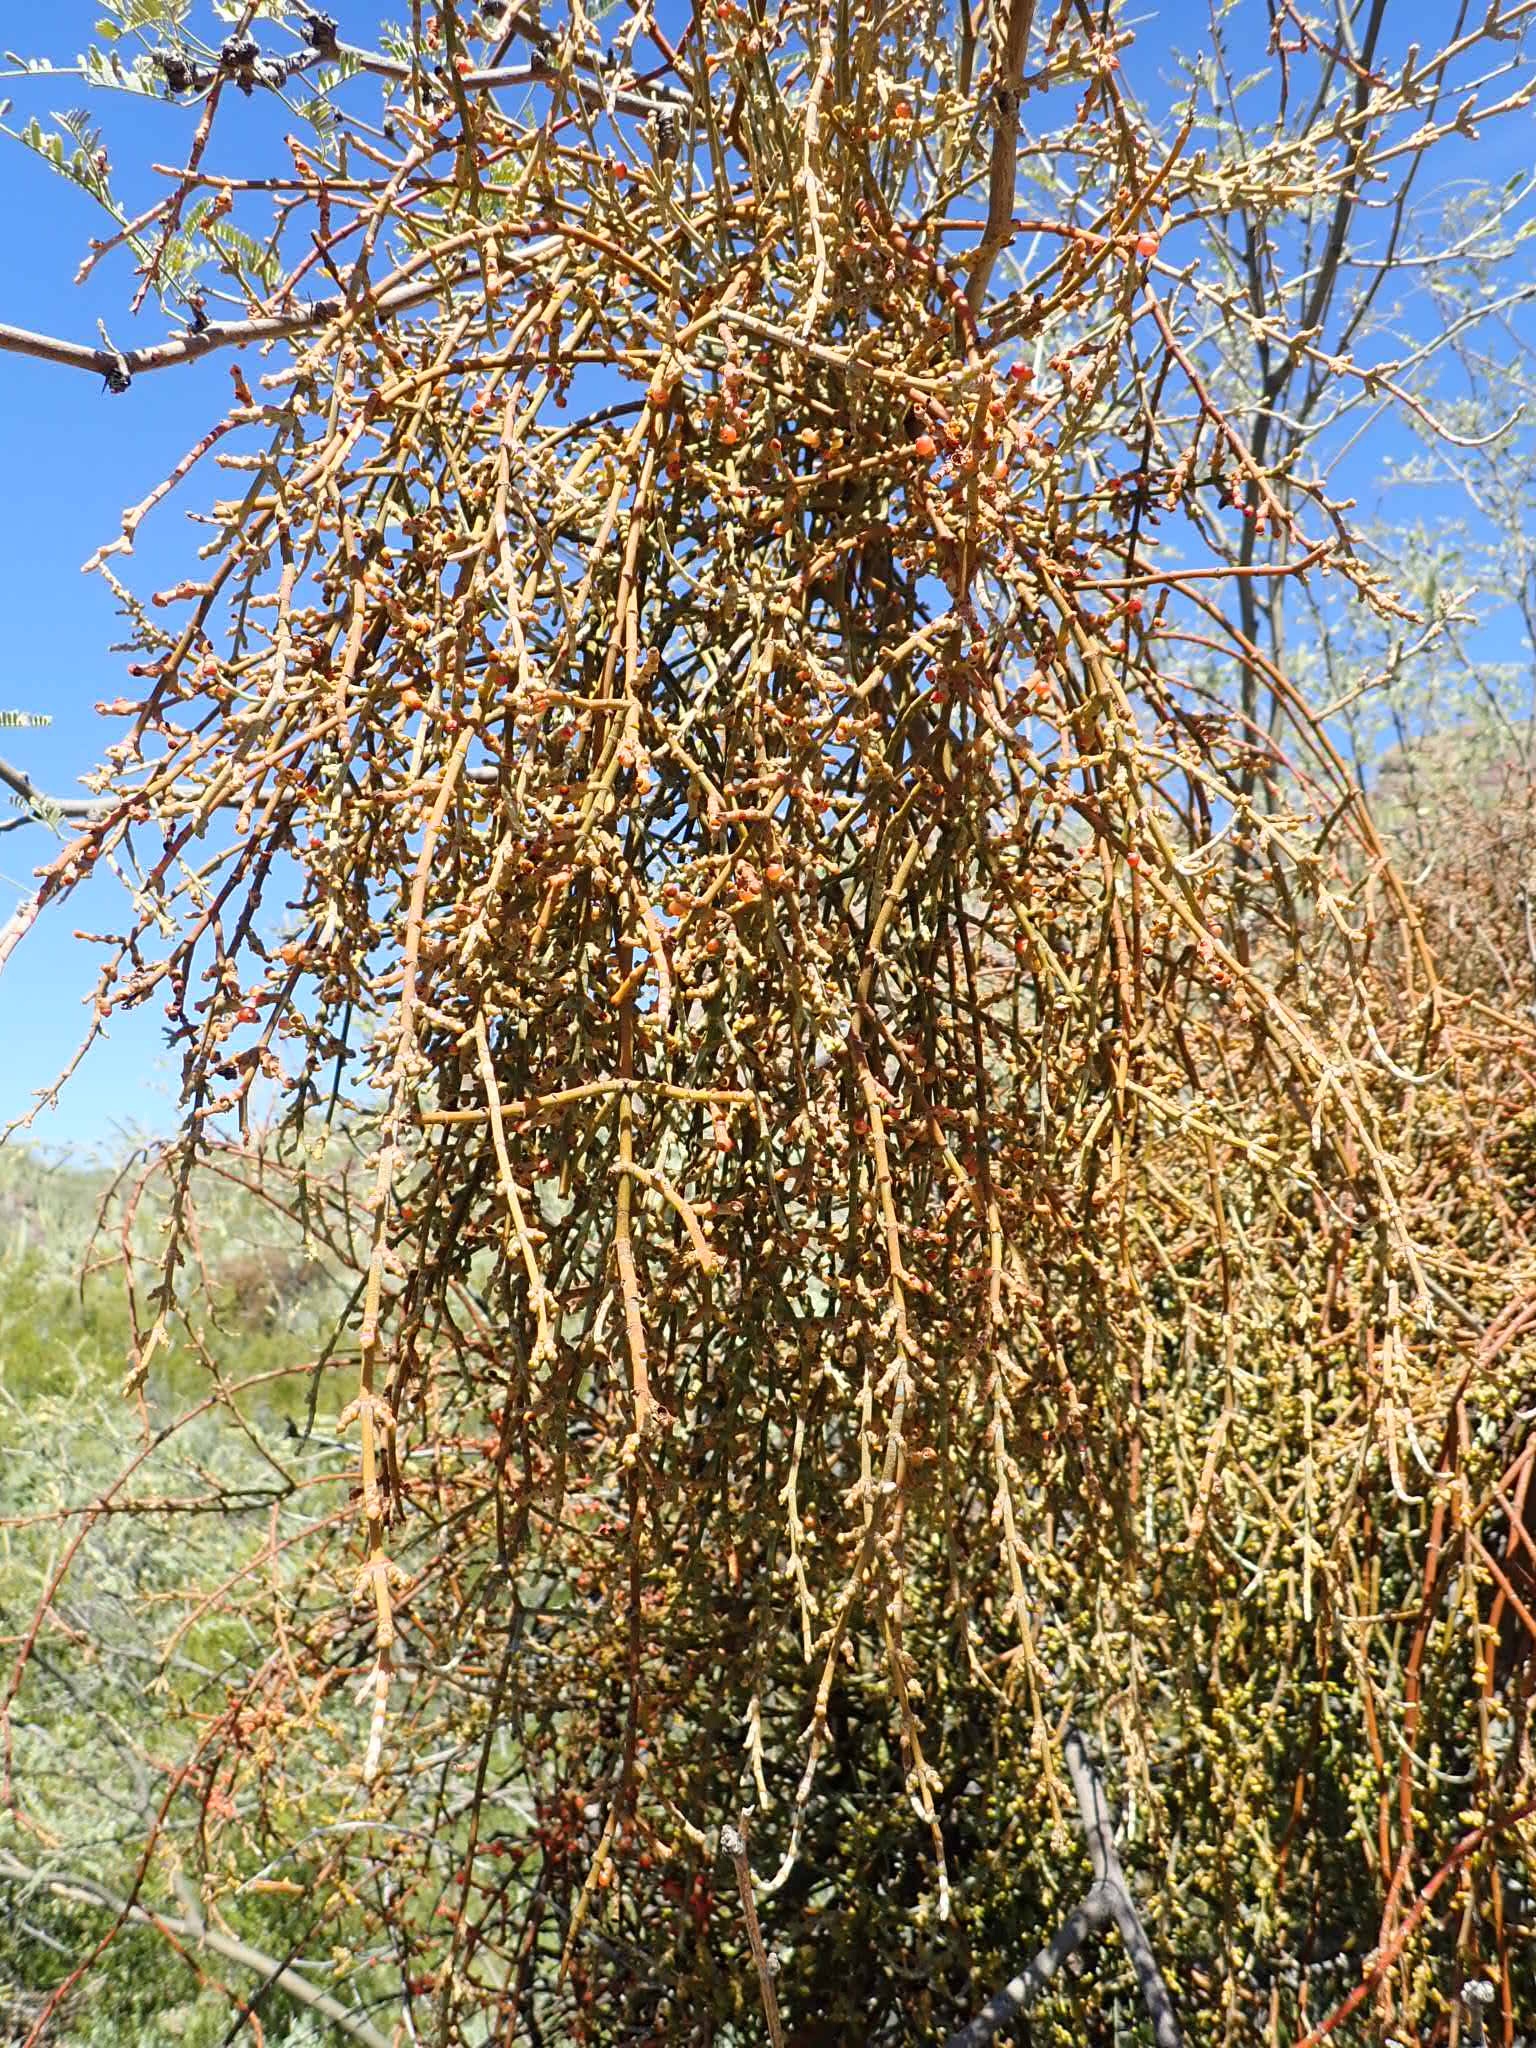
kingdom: Plantae
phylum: Tracheophyta
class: Magnoliopsida
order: Santalales
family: Viscaceae
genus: Phoradendron
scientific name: Phoradendron californicum
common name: Acacia mistletoe
